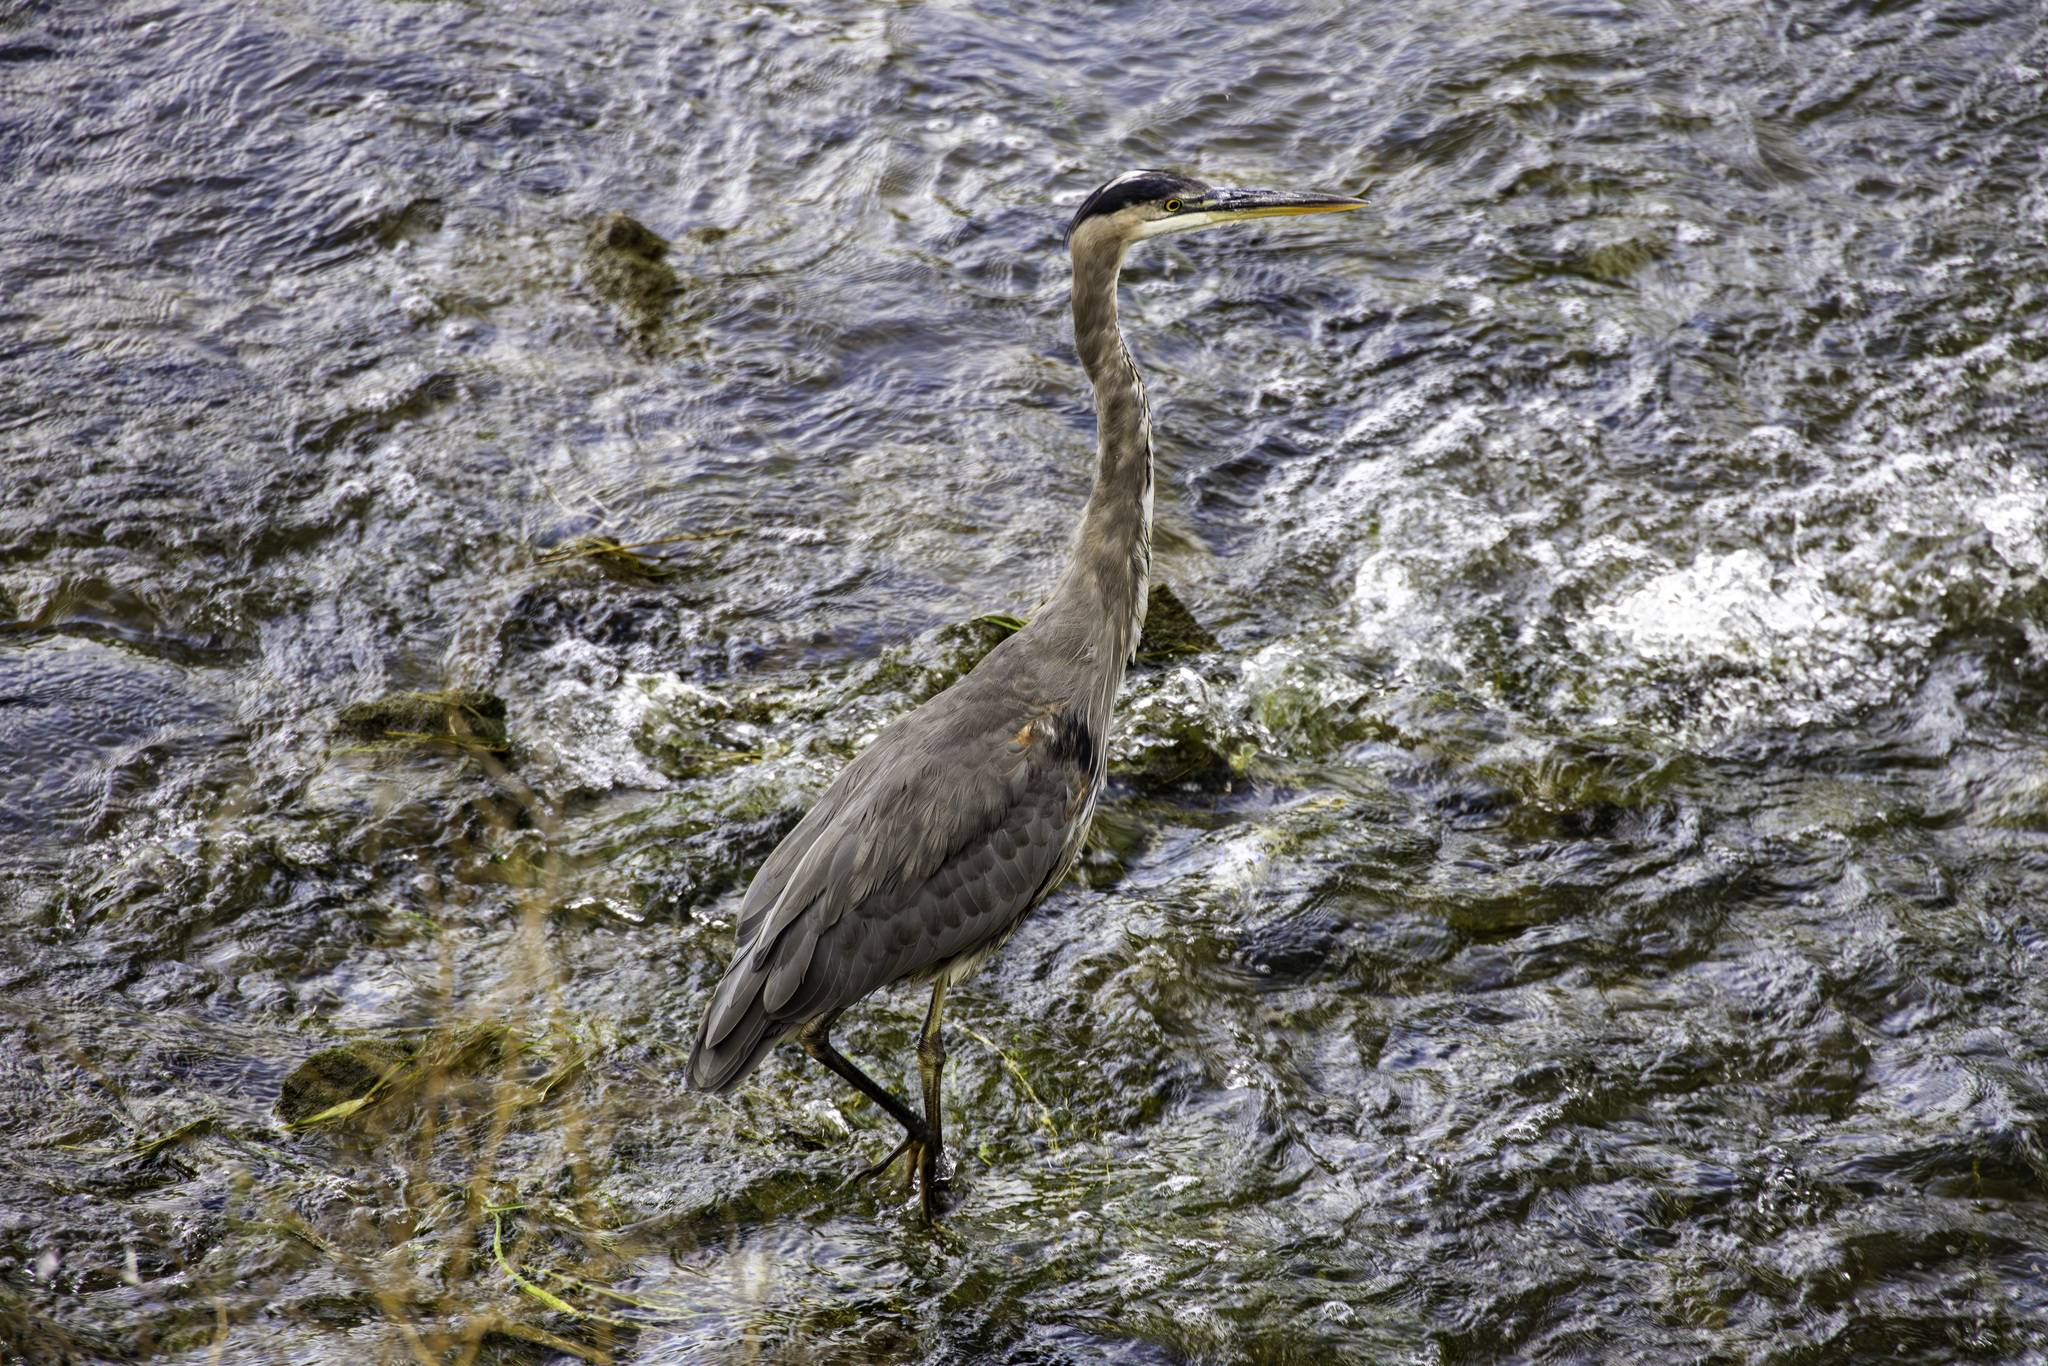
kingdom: Animalia
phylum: Chordata
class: Aves
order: Pelecaniformes
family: Ardeidae
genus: Ardea
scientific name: Ardea herodias
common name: Great blue heron
